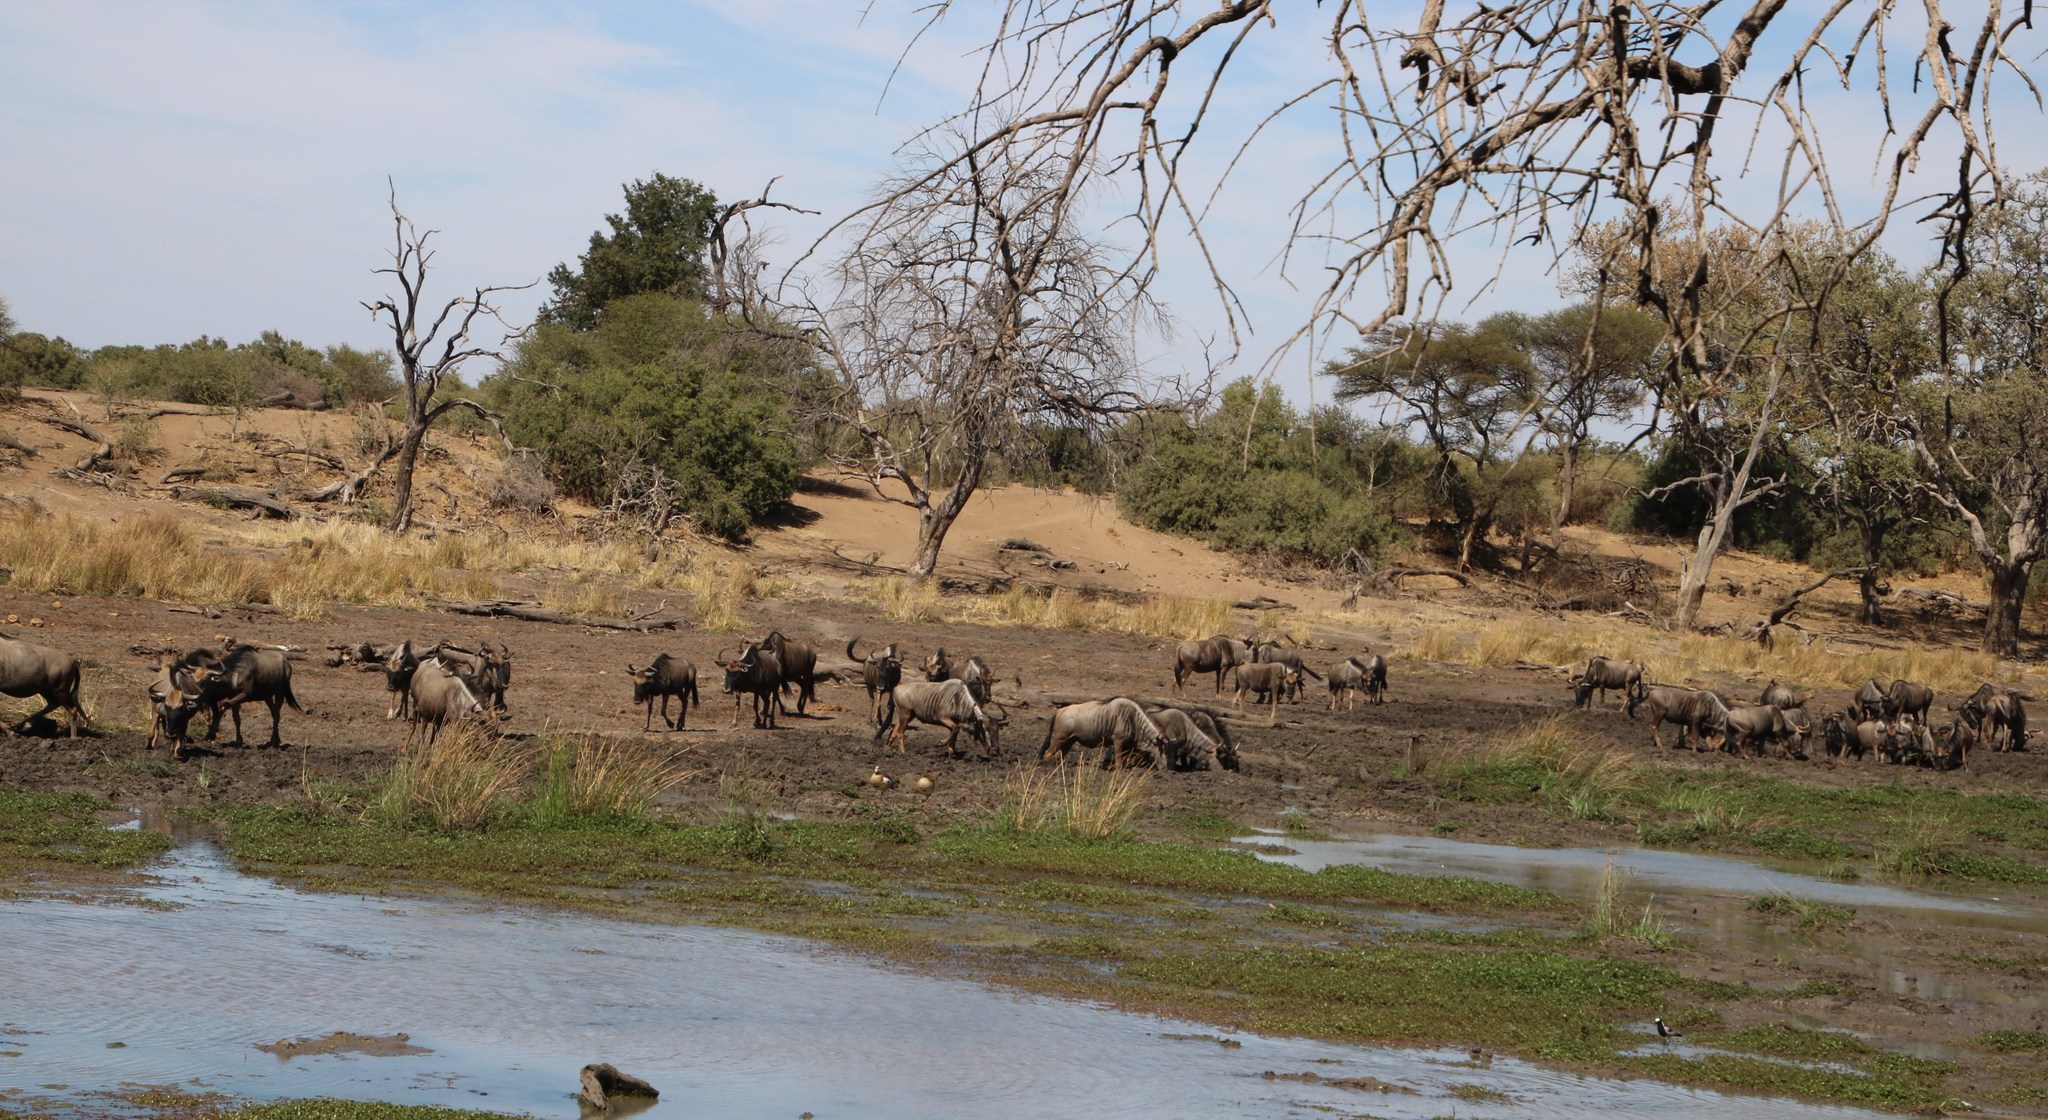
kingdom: Animalia
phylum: Chordata
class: Mammalia
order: Artiodactyla
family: Bovidae
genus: Connochaetes
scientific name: Connochaetes taurinus
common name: Blue wildebeest
